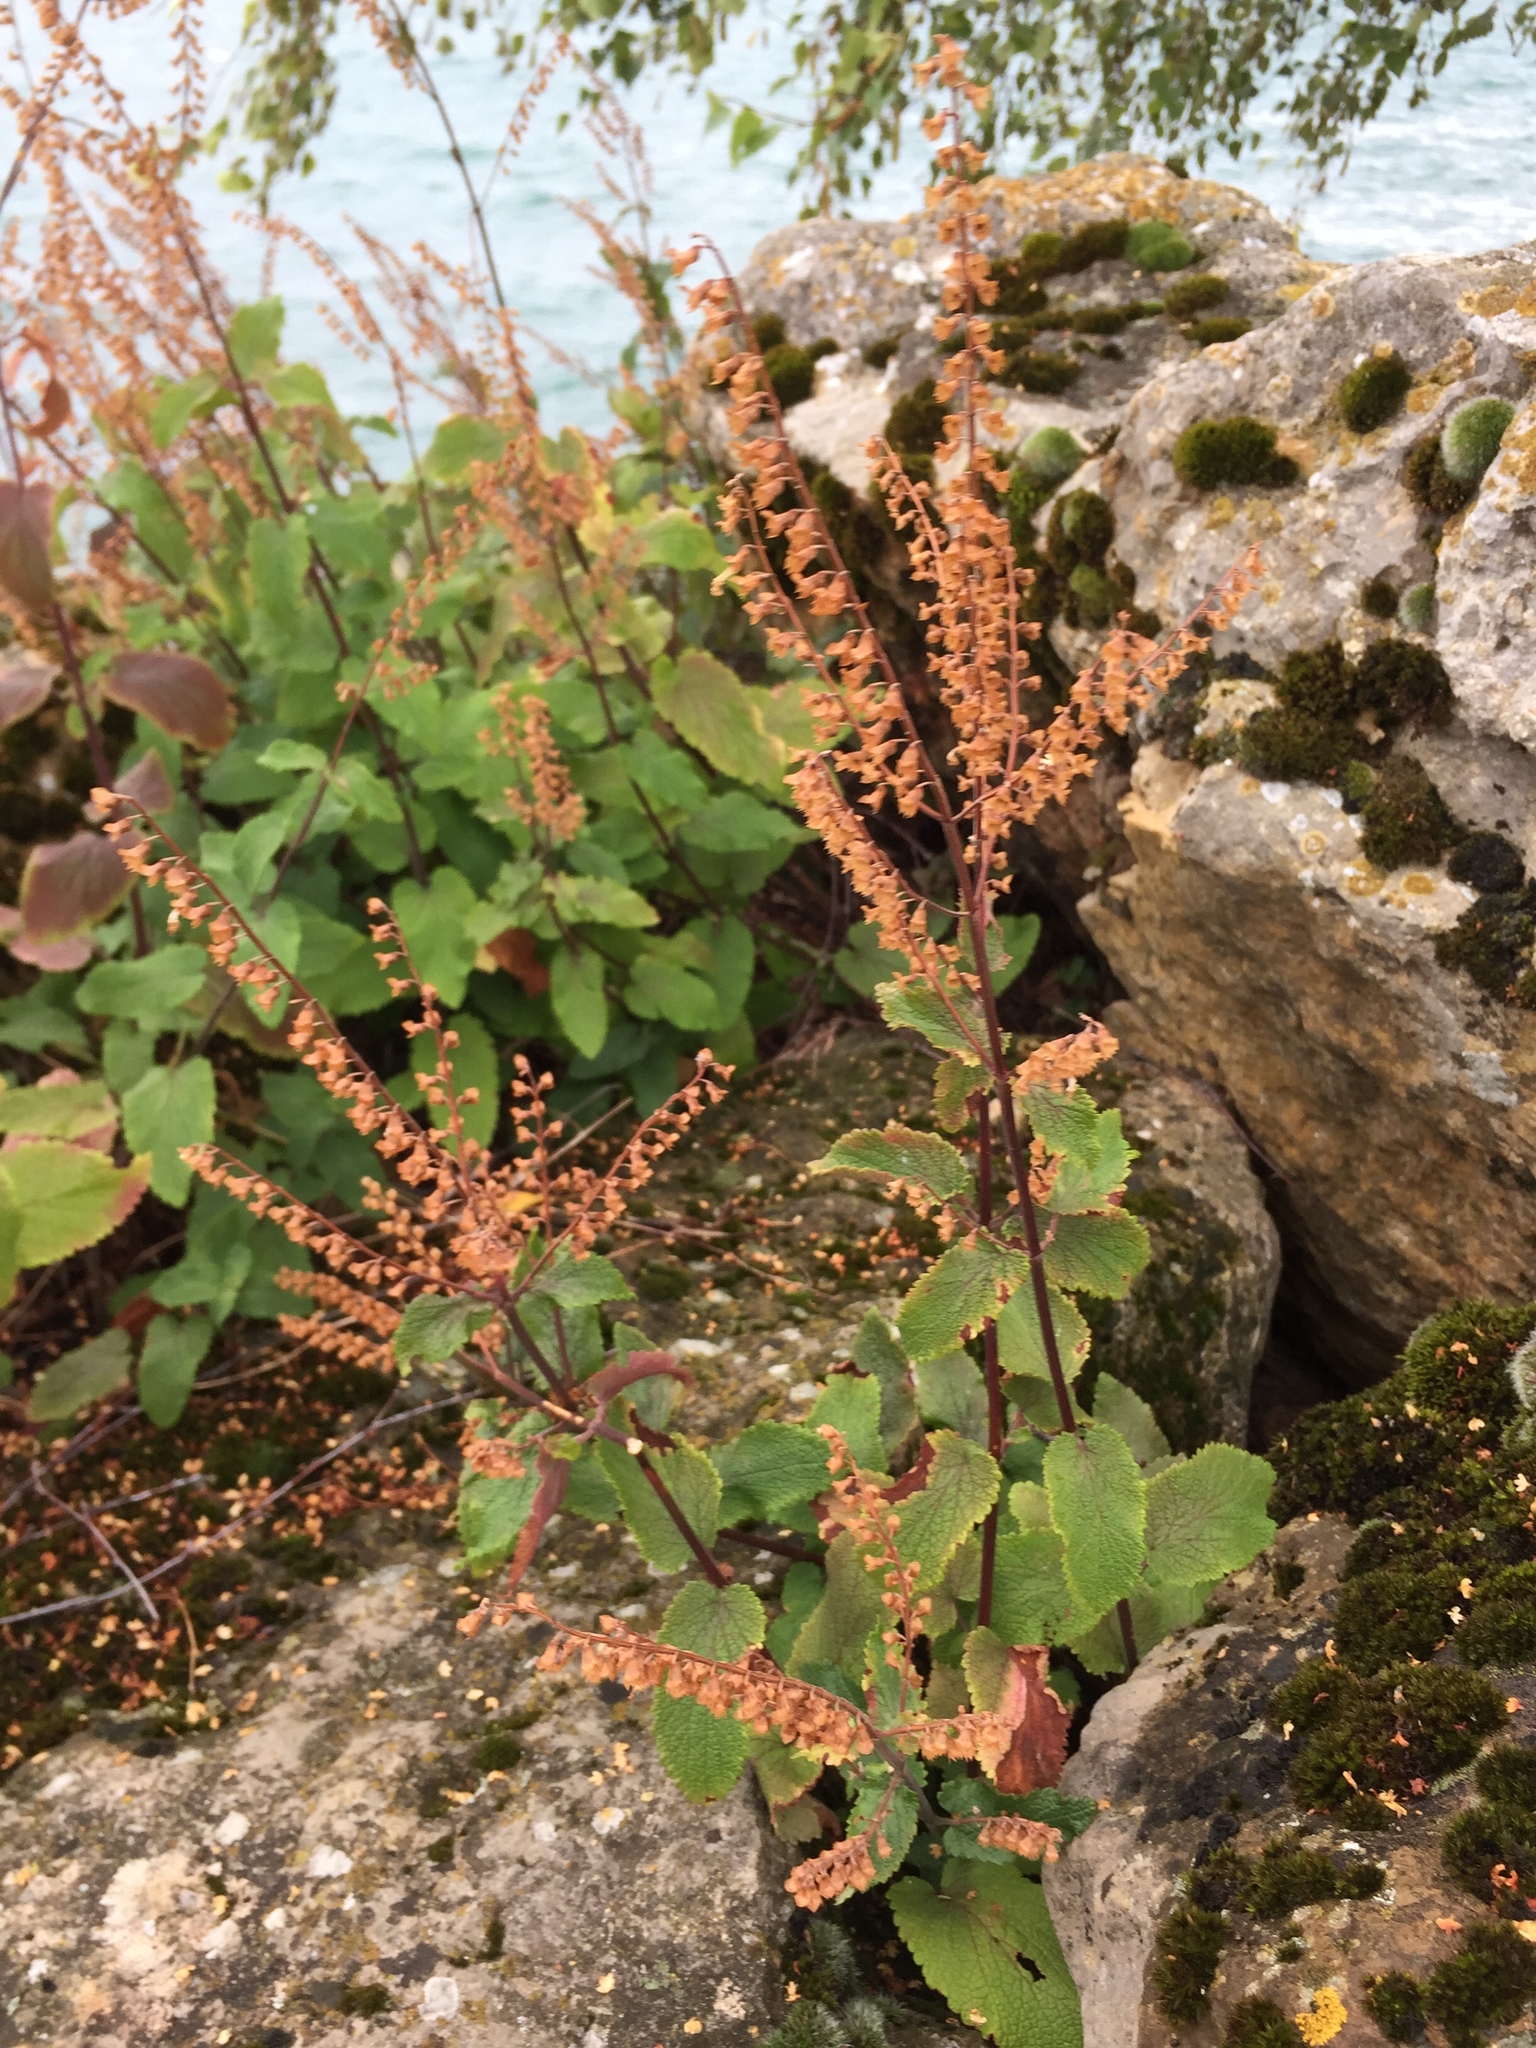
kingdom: Plantae
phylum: Tracheophyta
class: Magnoliopsida
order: Lamiales
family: Lamiaceae
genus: Teucrium
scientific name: Teucrium scorodonia
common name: Woodland germander
